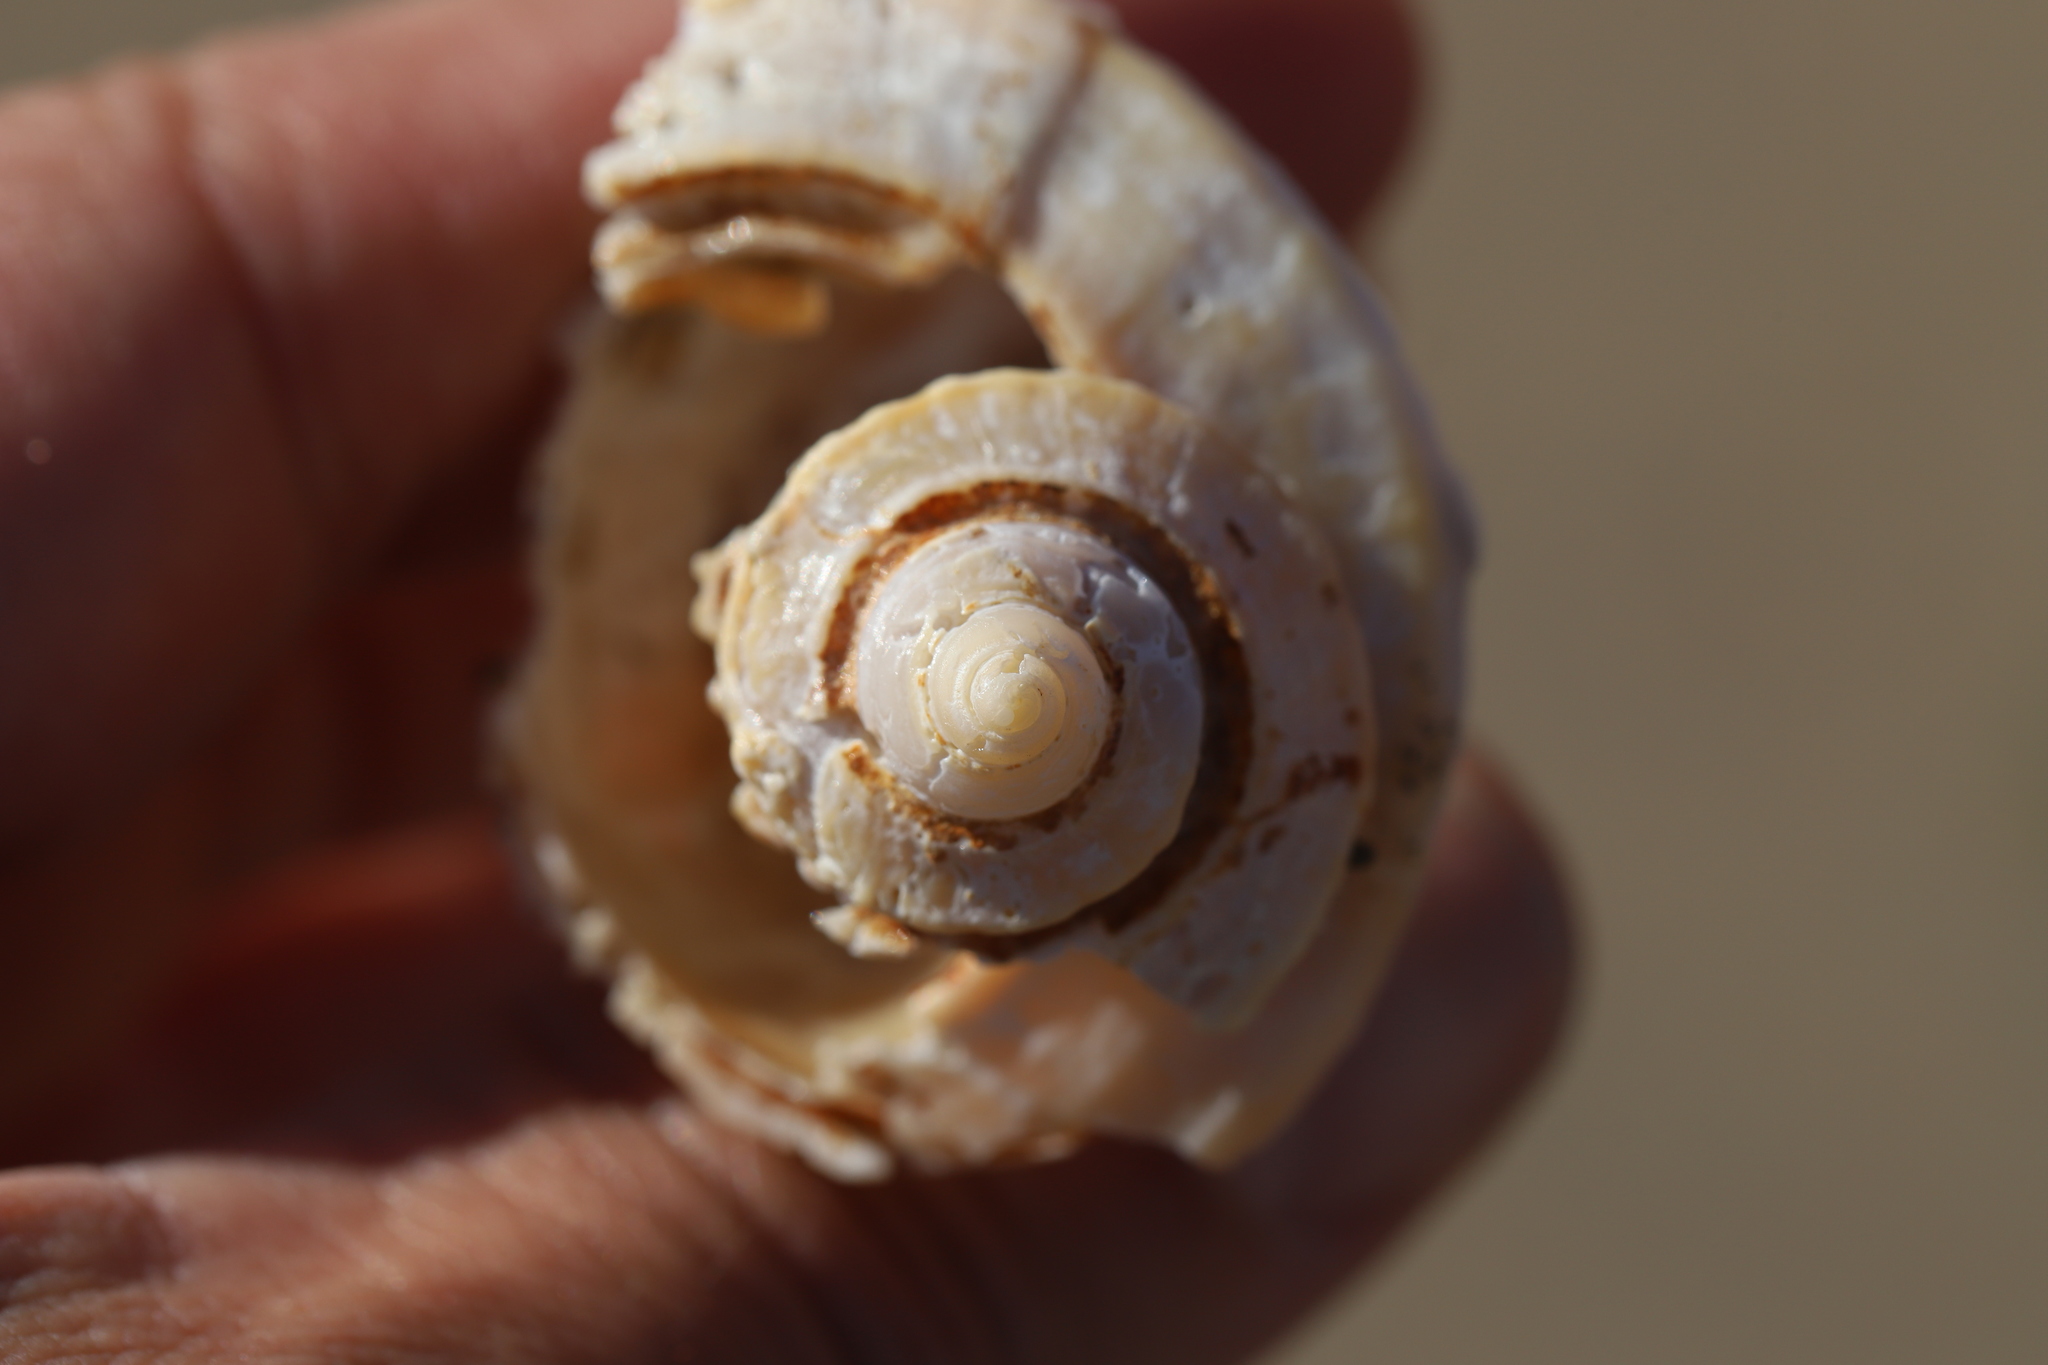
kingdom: Animalia
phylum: Mollusca
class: Gastropoda
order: Neogastropoda
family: Busyconidae
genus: Busycotypus
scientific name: Busycotypus canaliculatus
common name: Channeled whelk
